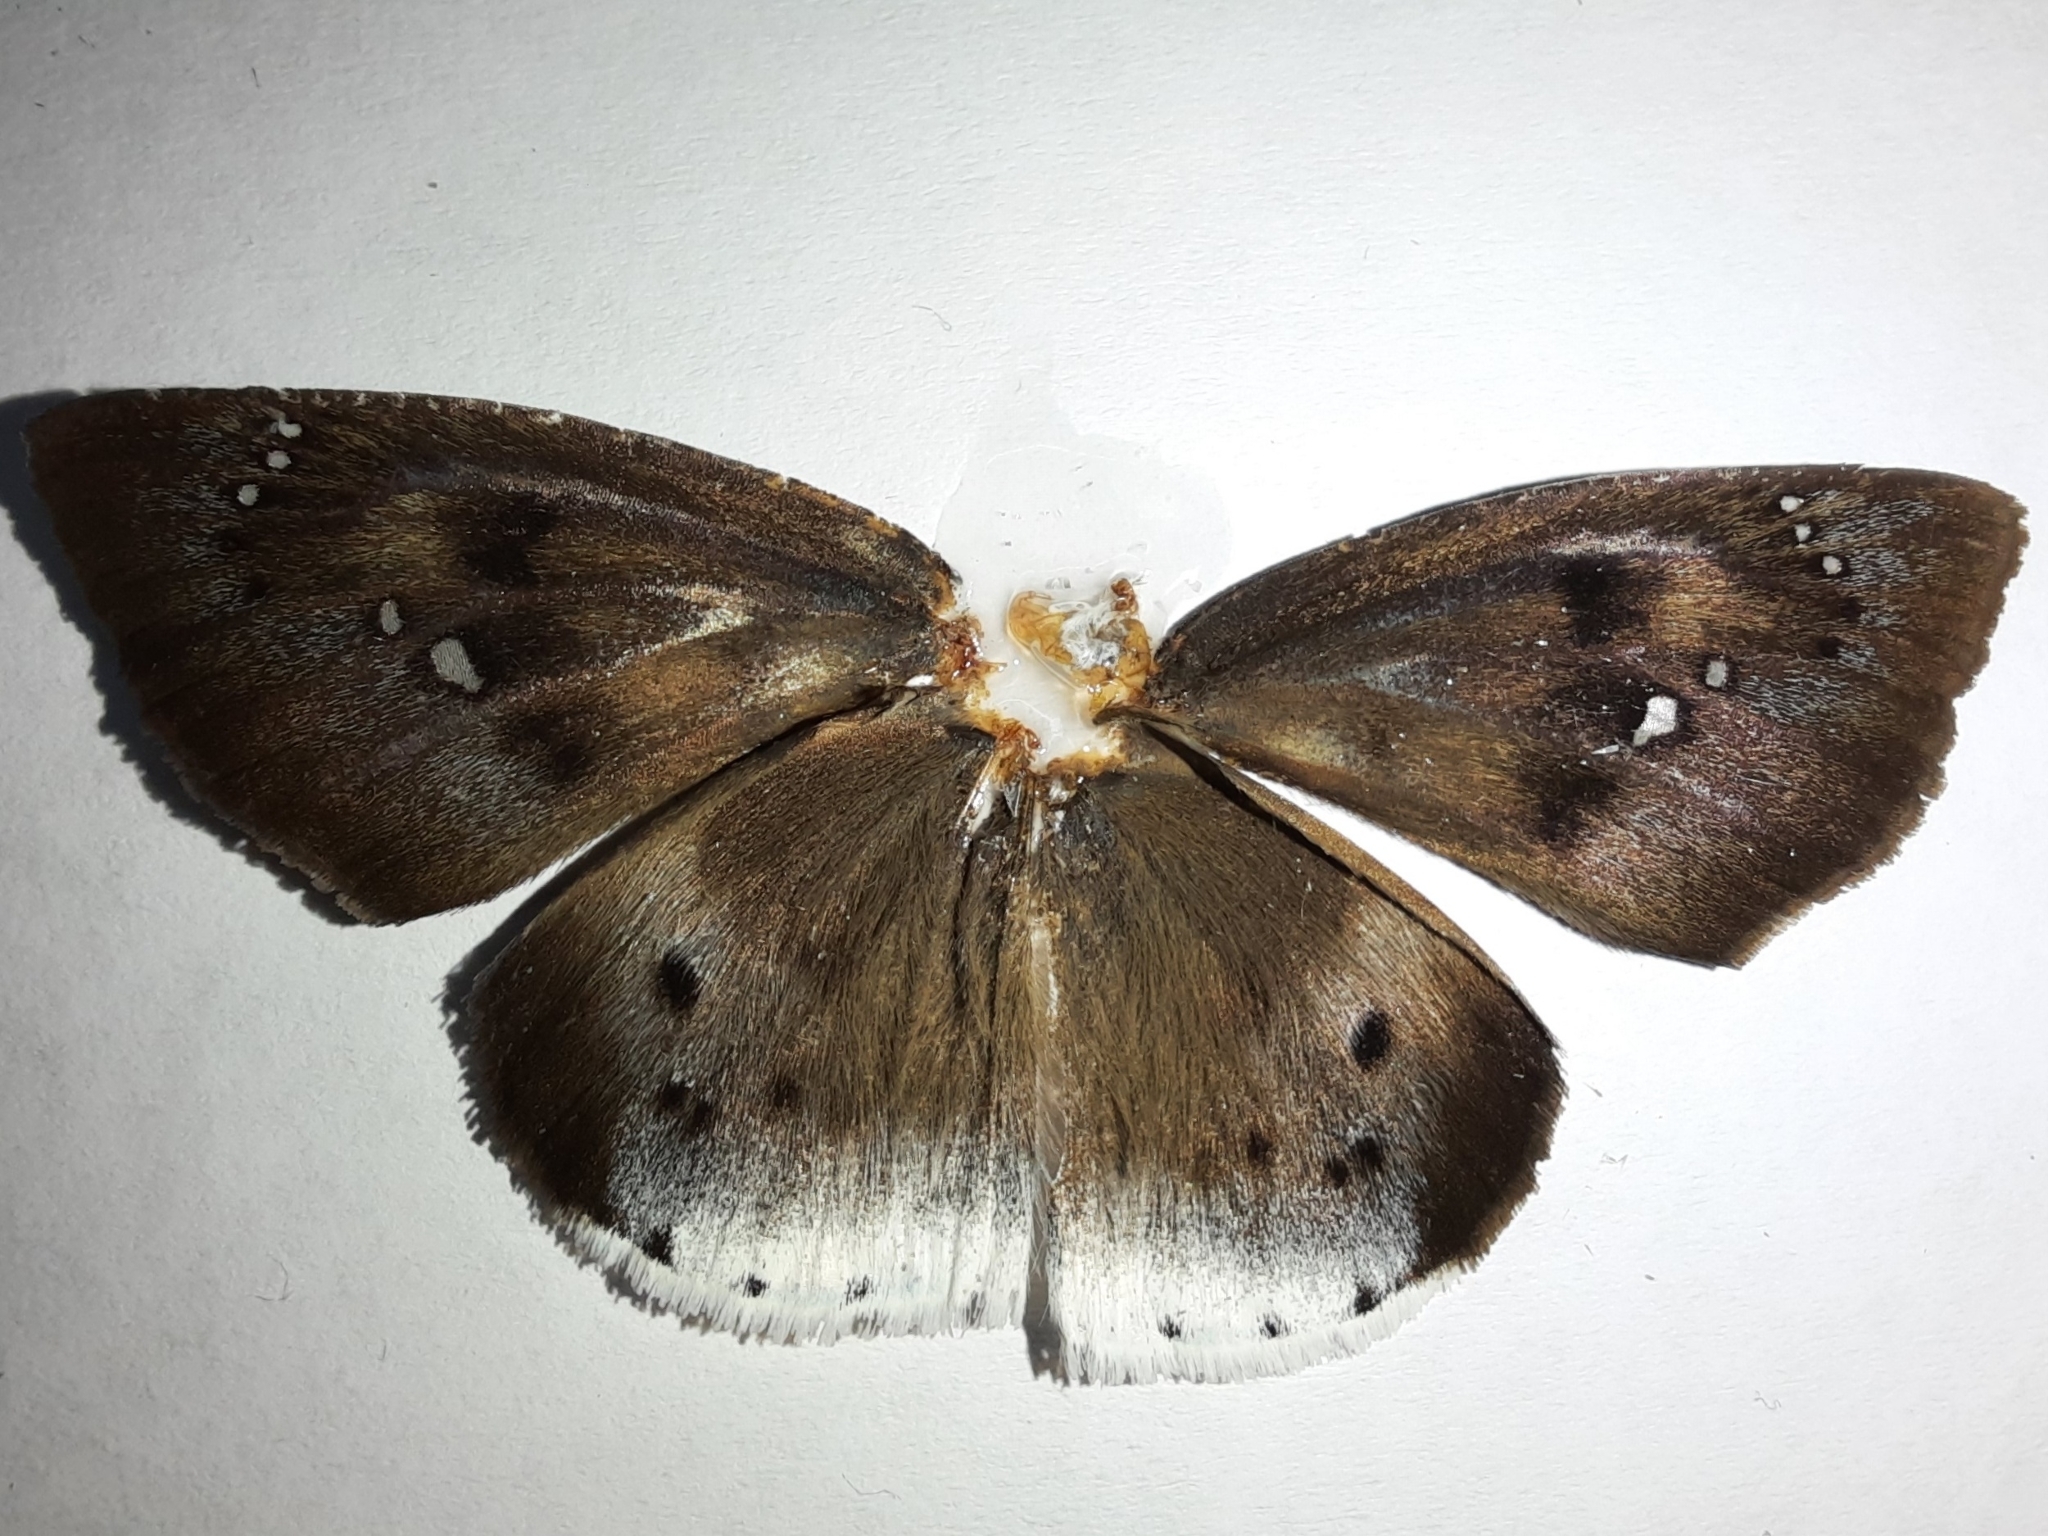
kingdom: Animalia
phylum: Arthropoda
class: Insecta
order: Lepidoptera
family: Hesperiidae
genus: Tagiades
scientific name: Tagiades japetus
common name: Pied flat
